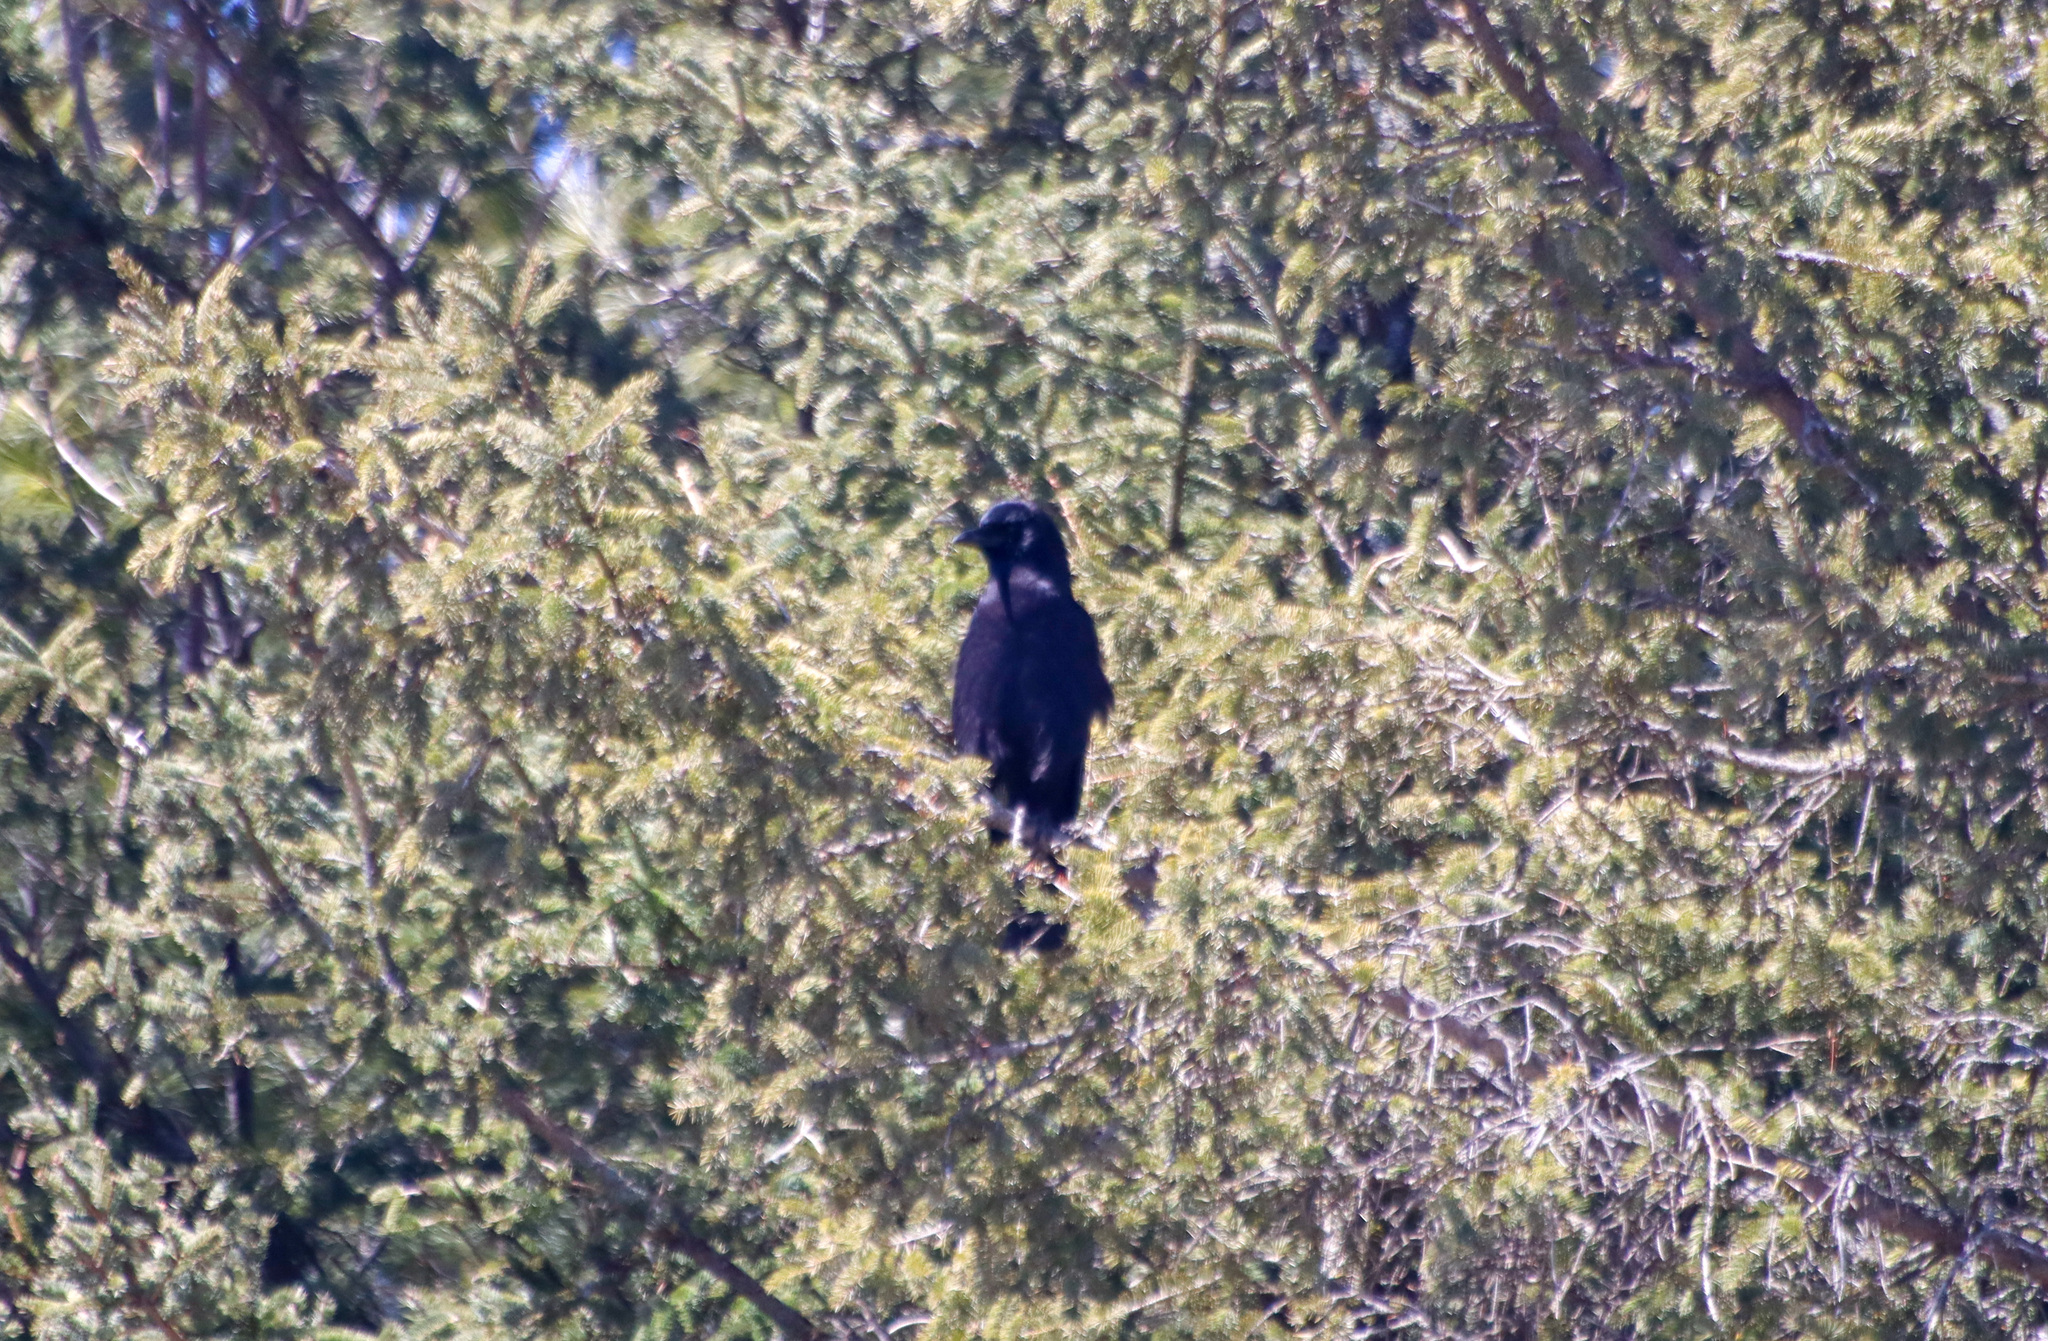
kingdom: Animalia
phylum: Chordata
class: Aves
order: Passeriformes
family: Corvidae
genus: Corvus
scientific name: Corvus brachyrhynchos
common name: American crow
